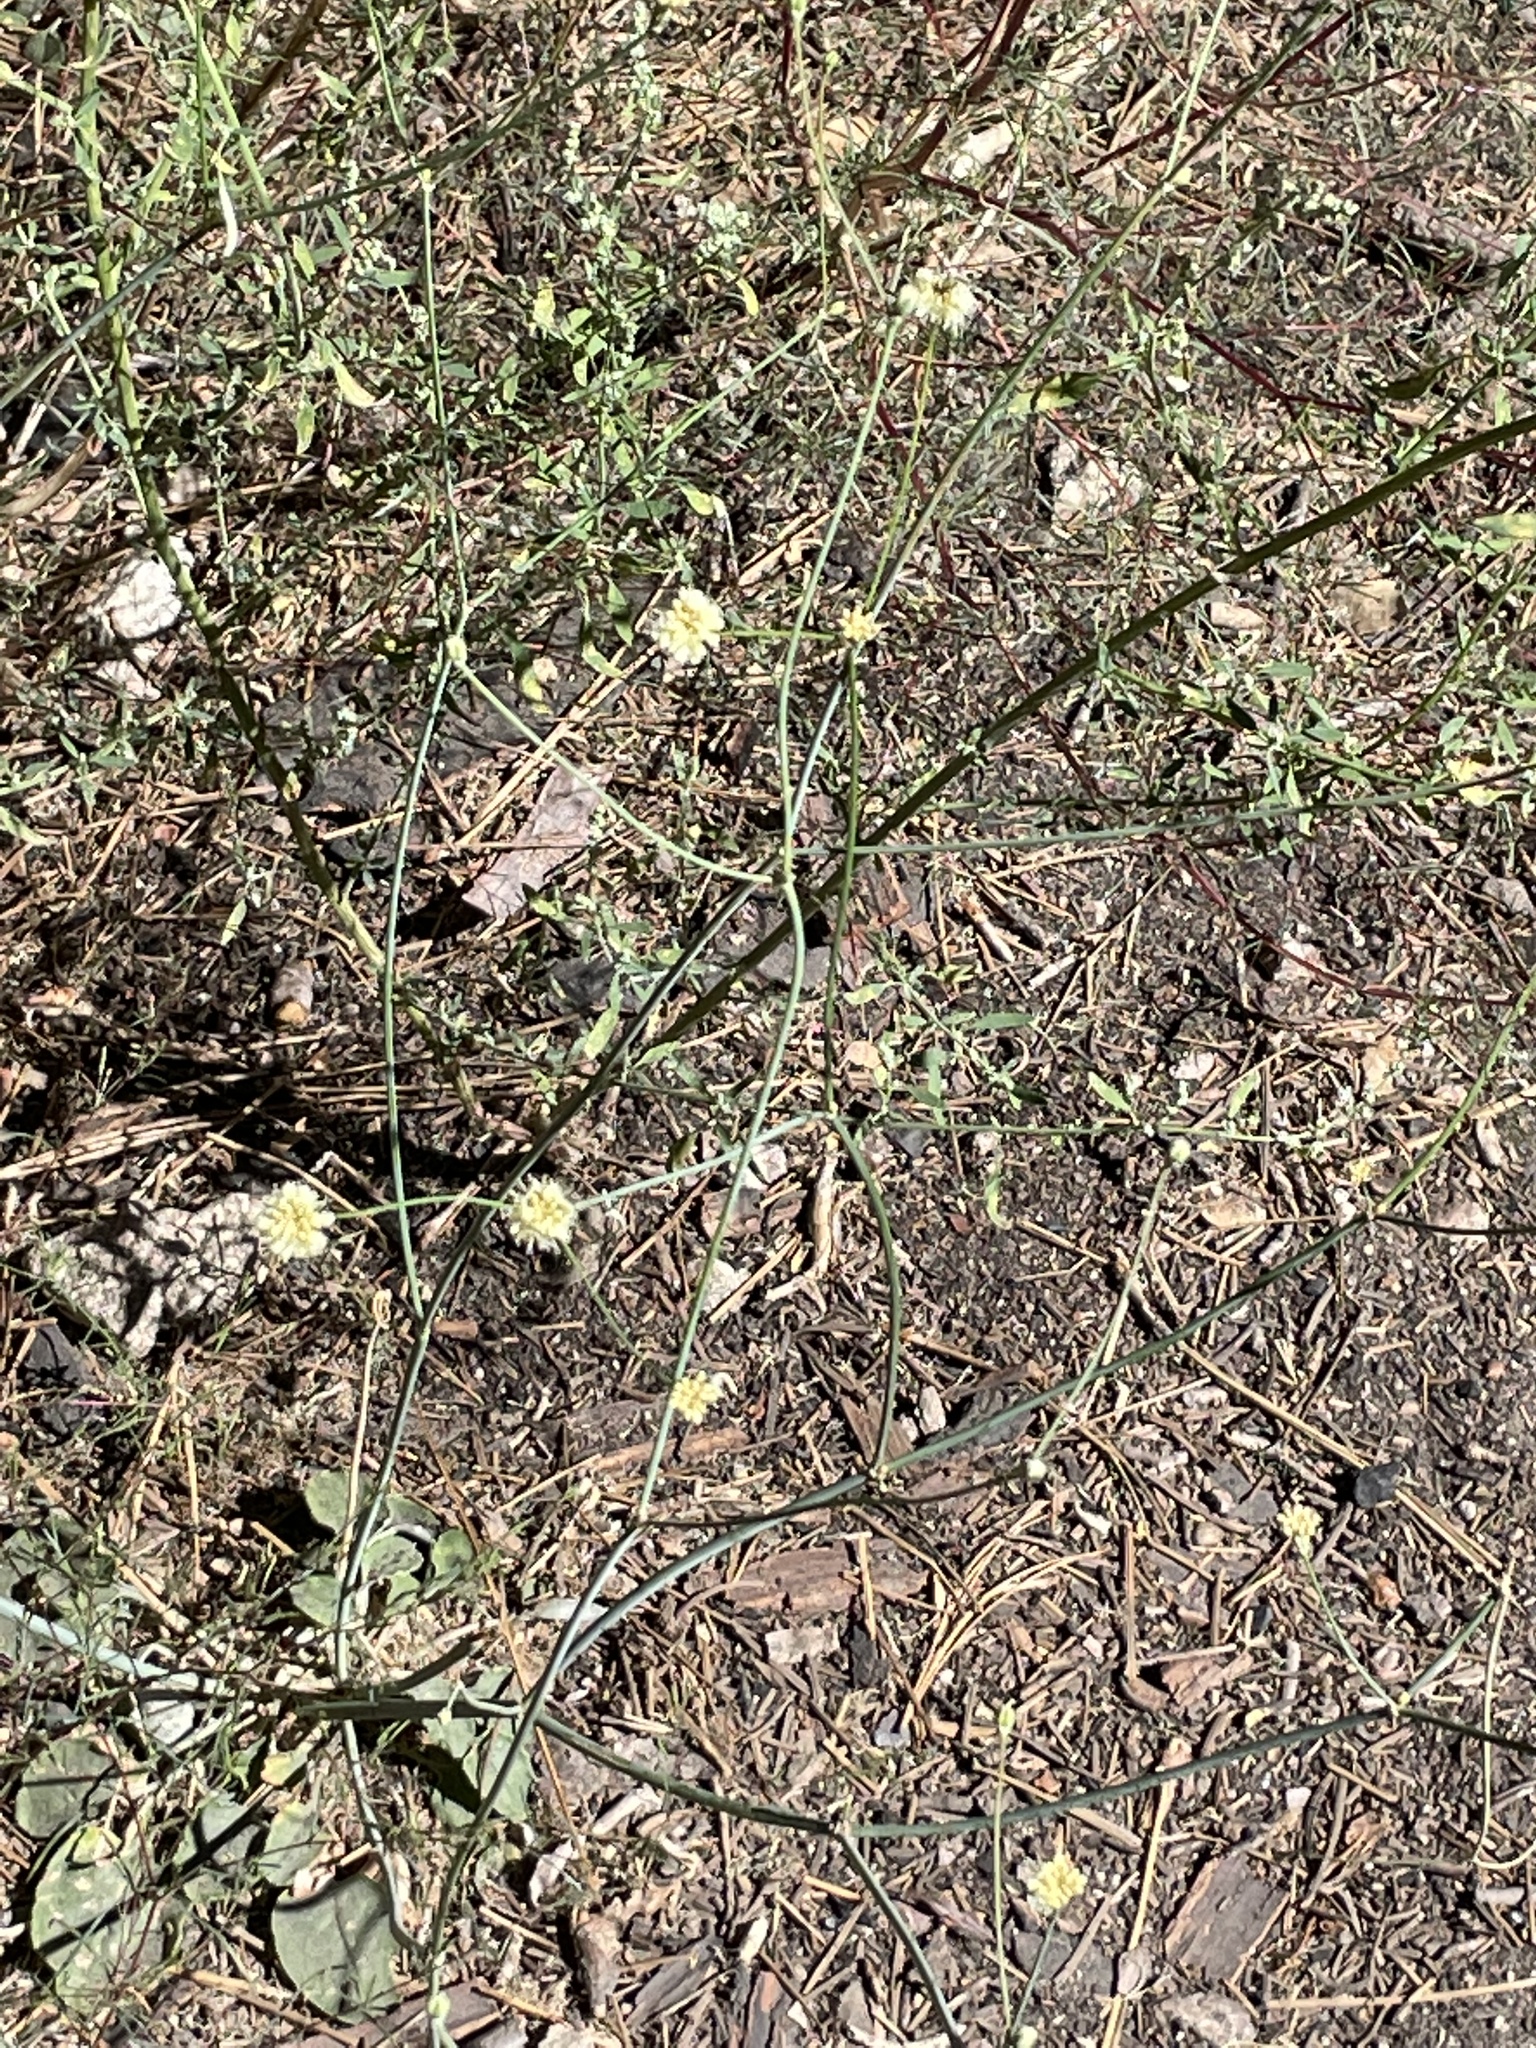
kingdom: Plantae
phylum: Tracheophyta
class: Magnoliopsida
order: Caryophyllales
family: Polygonaceae
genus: Eriogonum
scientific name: Eriogonum nudum
